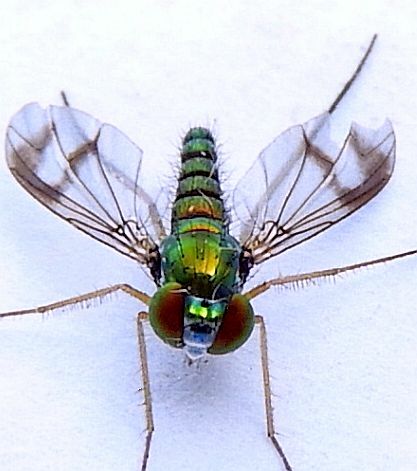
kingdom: Animalia
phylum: Arthropoda
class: Insecta
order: Diptera
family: Dolichopodidae
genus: Condylostylus
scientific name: Condylostylus
